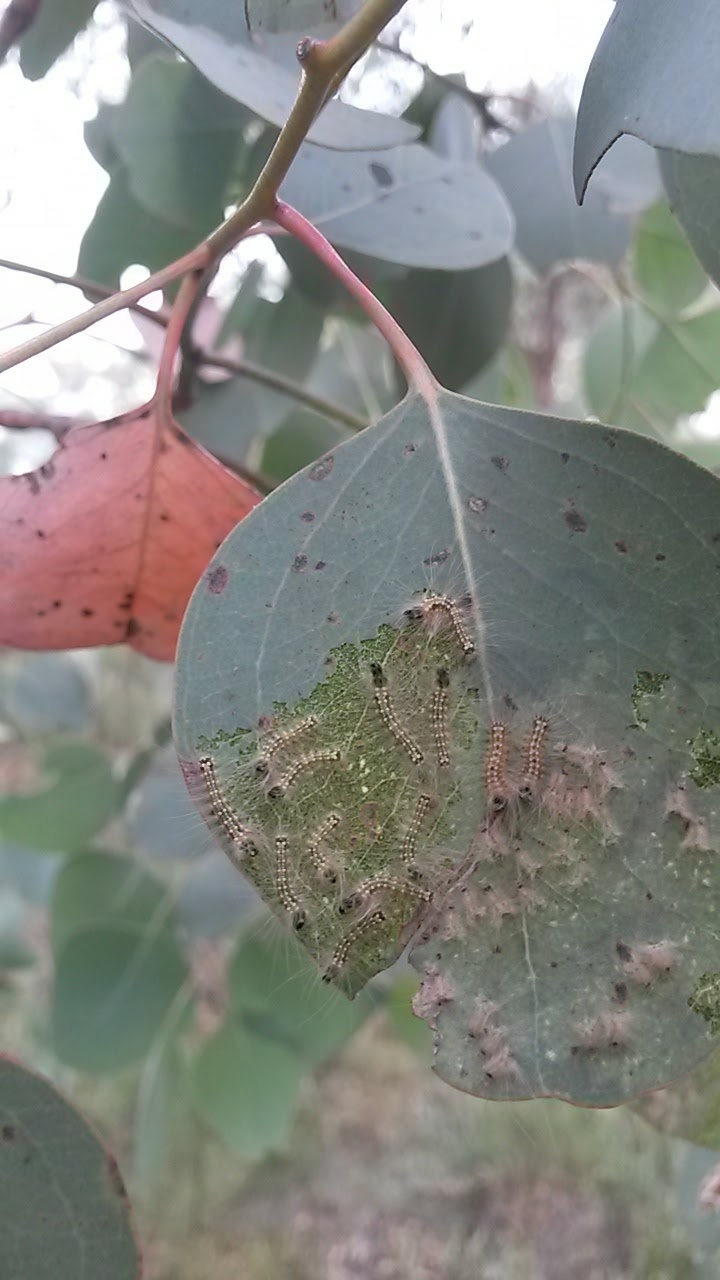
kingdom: Animalia
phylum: Arthropoda
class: Insecta
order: Lepidoptera
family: Nolidae
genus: Uraba
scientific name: Uraba lugens
